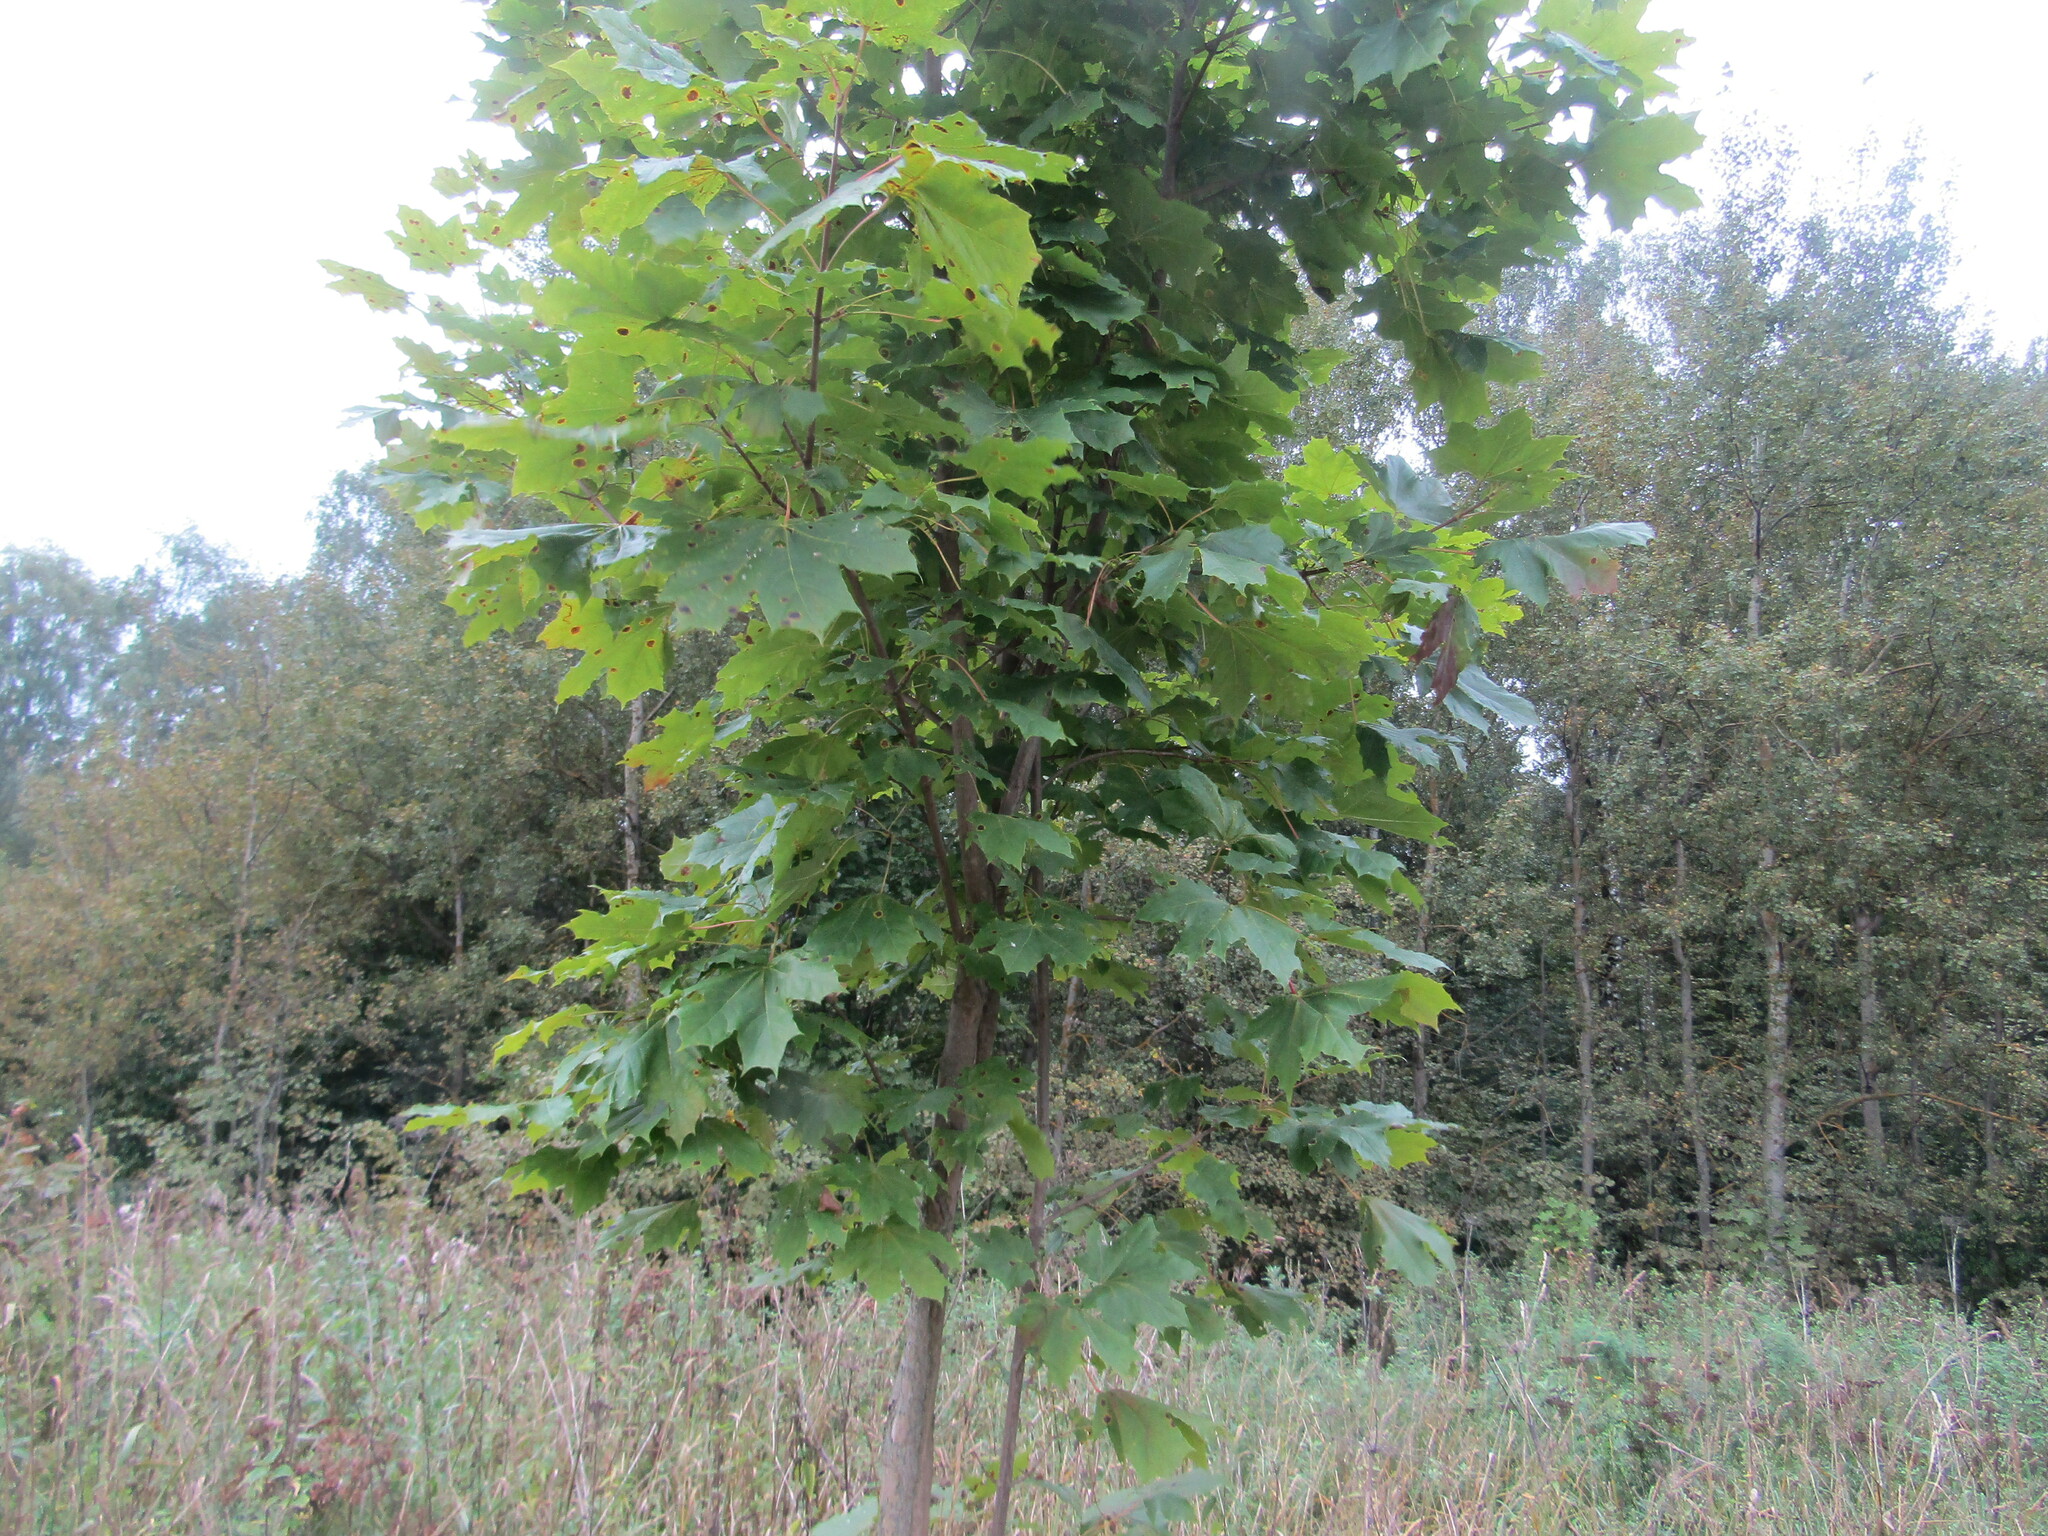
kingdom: Plantae
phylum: Tracheophyta
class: Magnoliopsida
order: Sapindales
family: Sapindaceae
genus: Acer
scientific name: Acer platanoides
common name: Norway maple
